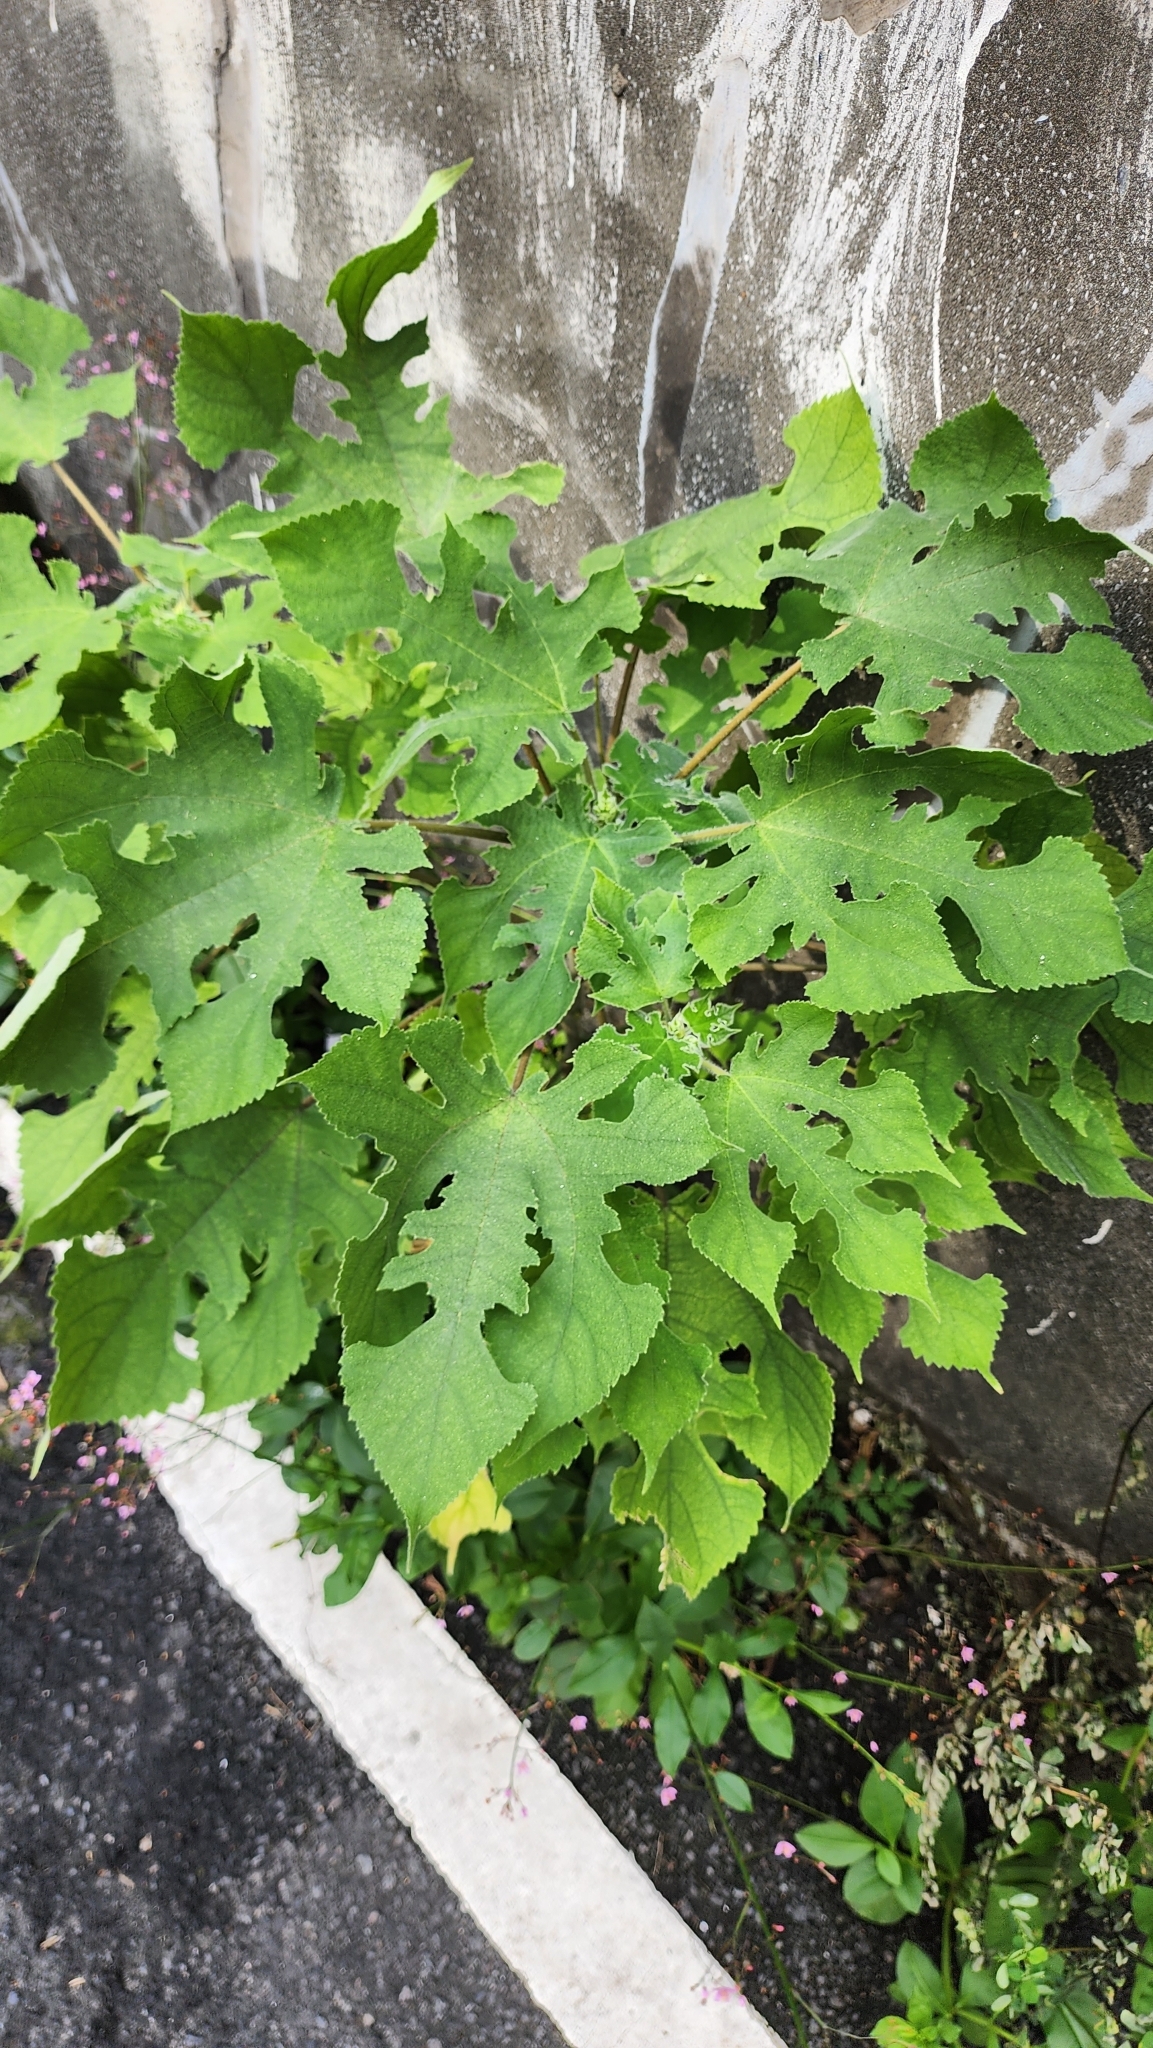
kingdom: Plantae
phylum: Tracheophyta
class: Magnoliopsida
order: Rosales
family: Moraceae
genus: Broussonetia
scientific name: Broussonetia papyrifera
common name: Paper mulberry
